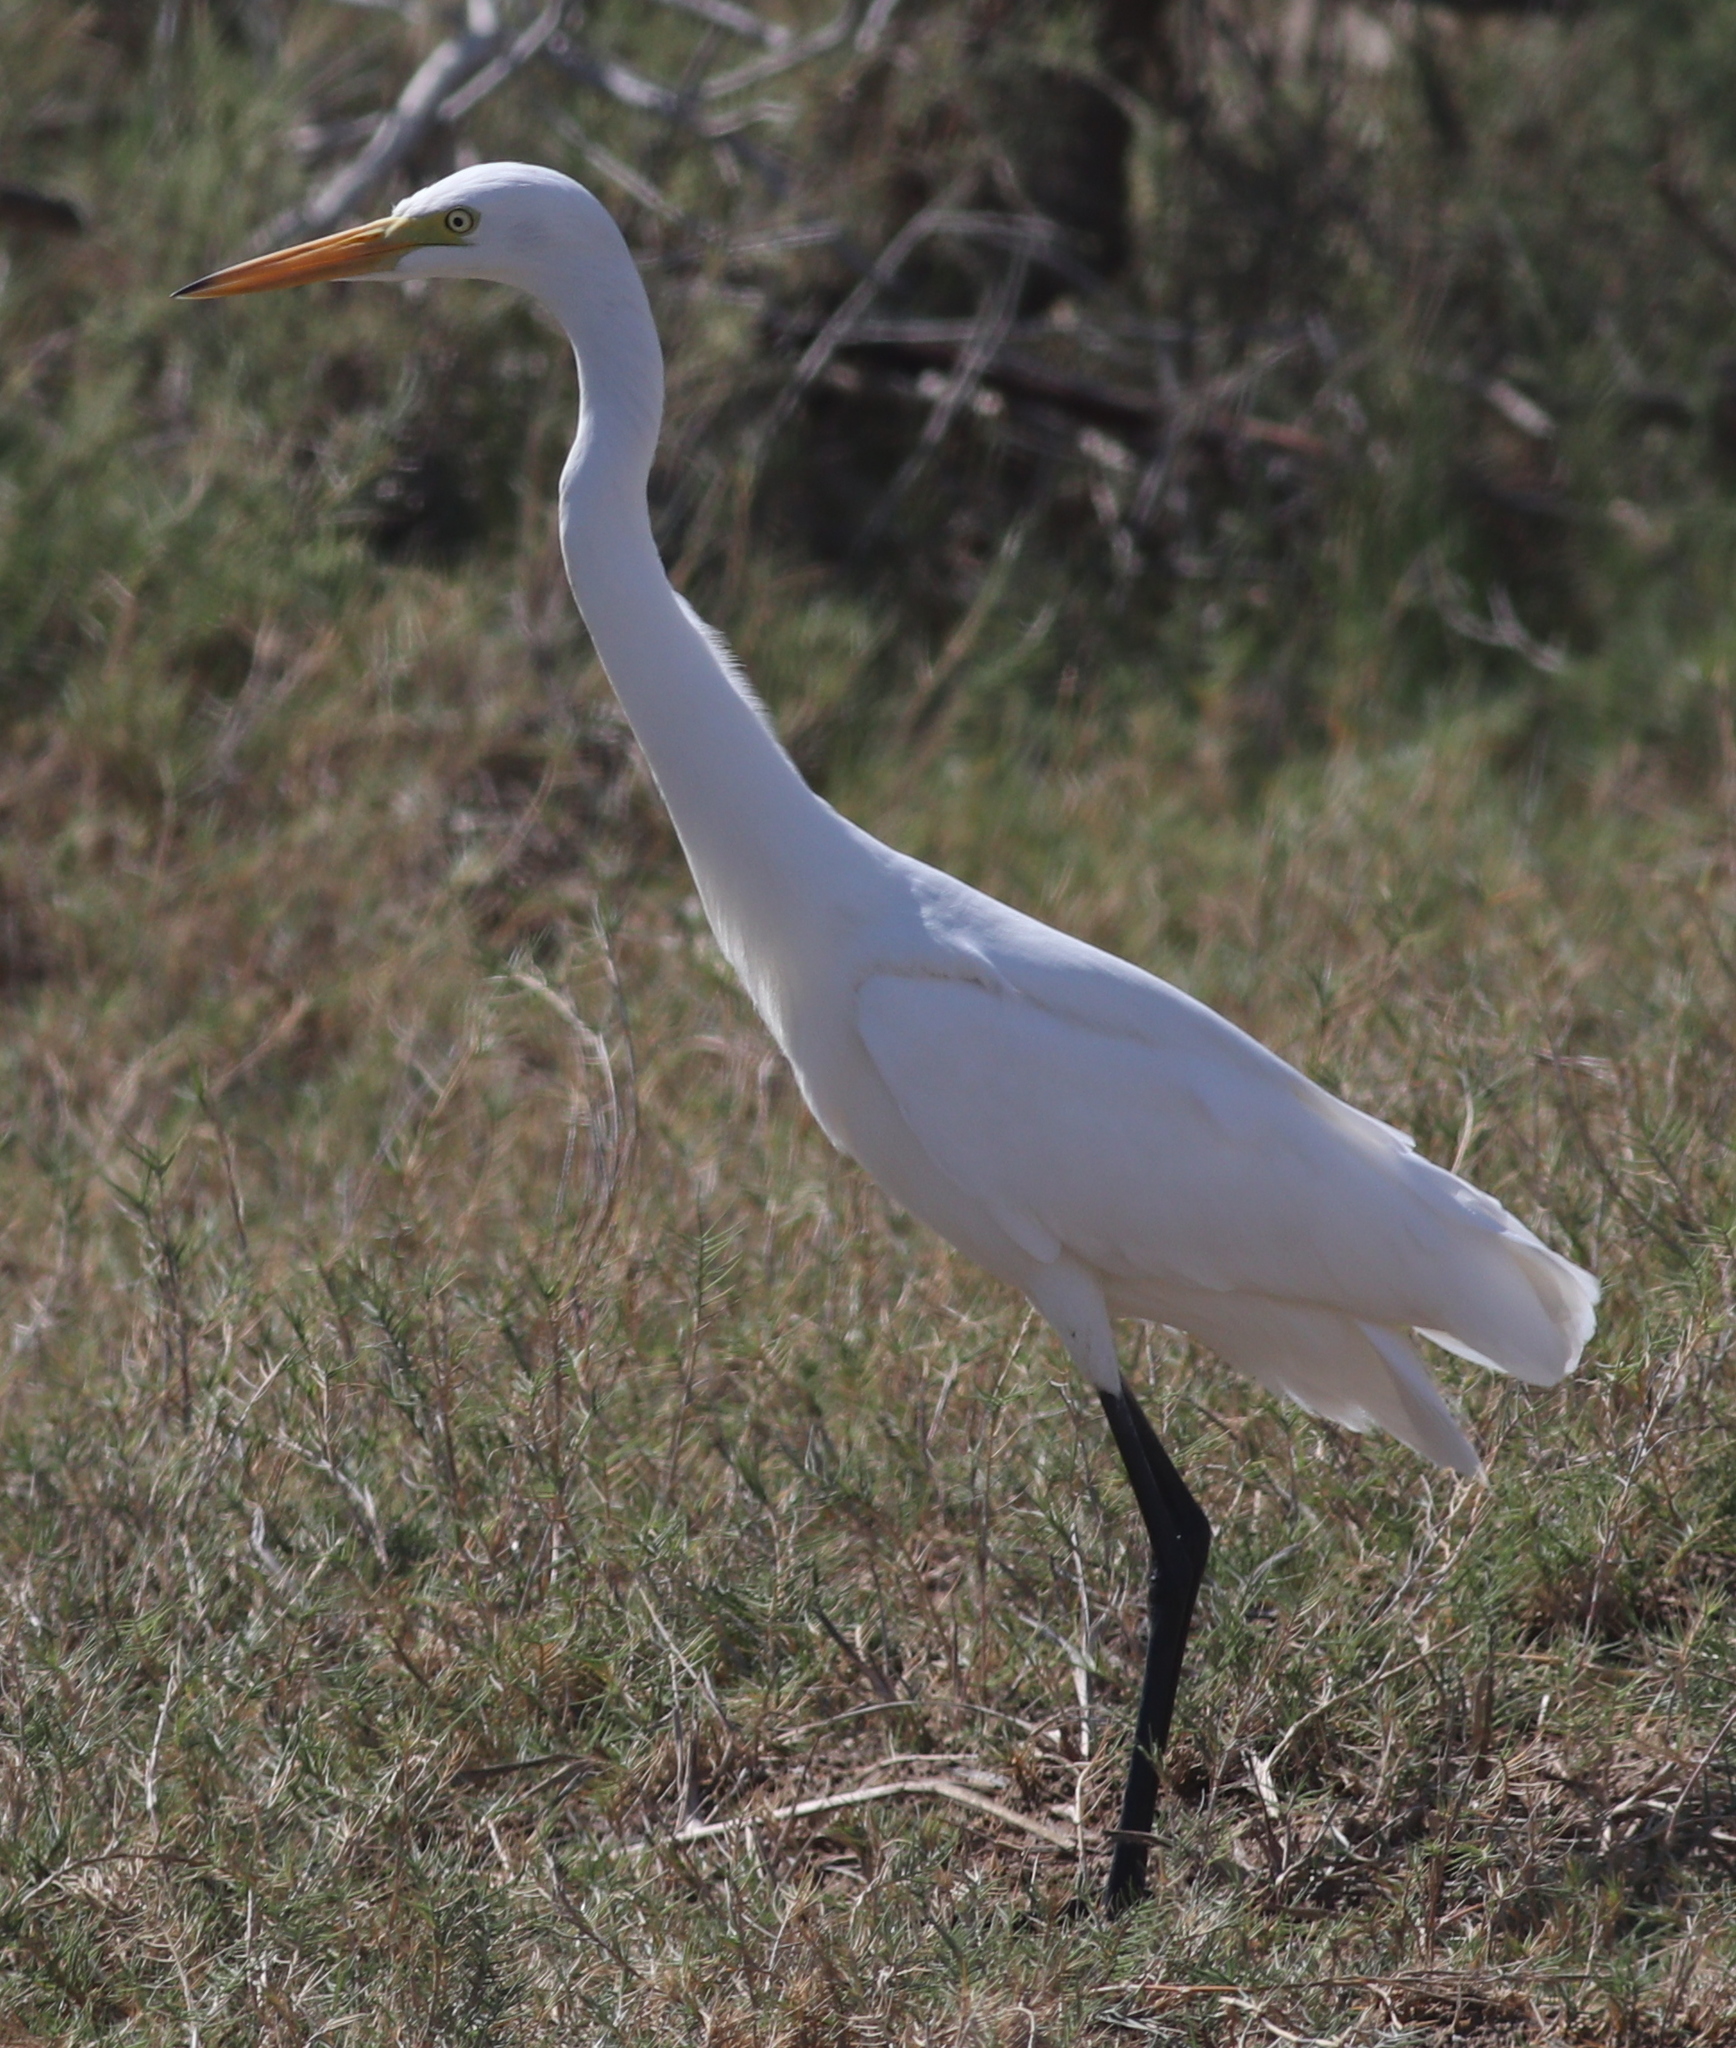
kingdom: Animalia
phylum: Chordata
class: Aves
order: Pelecaniformes
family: Ardeidae
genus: Egretta
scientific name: Egretta intermedia
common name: Intermediate egret
